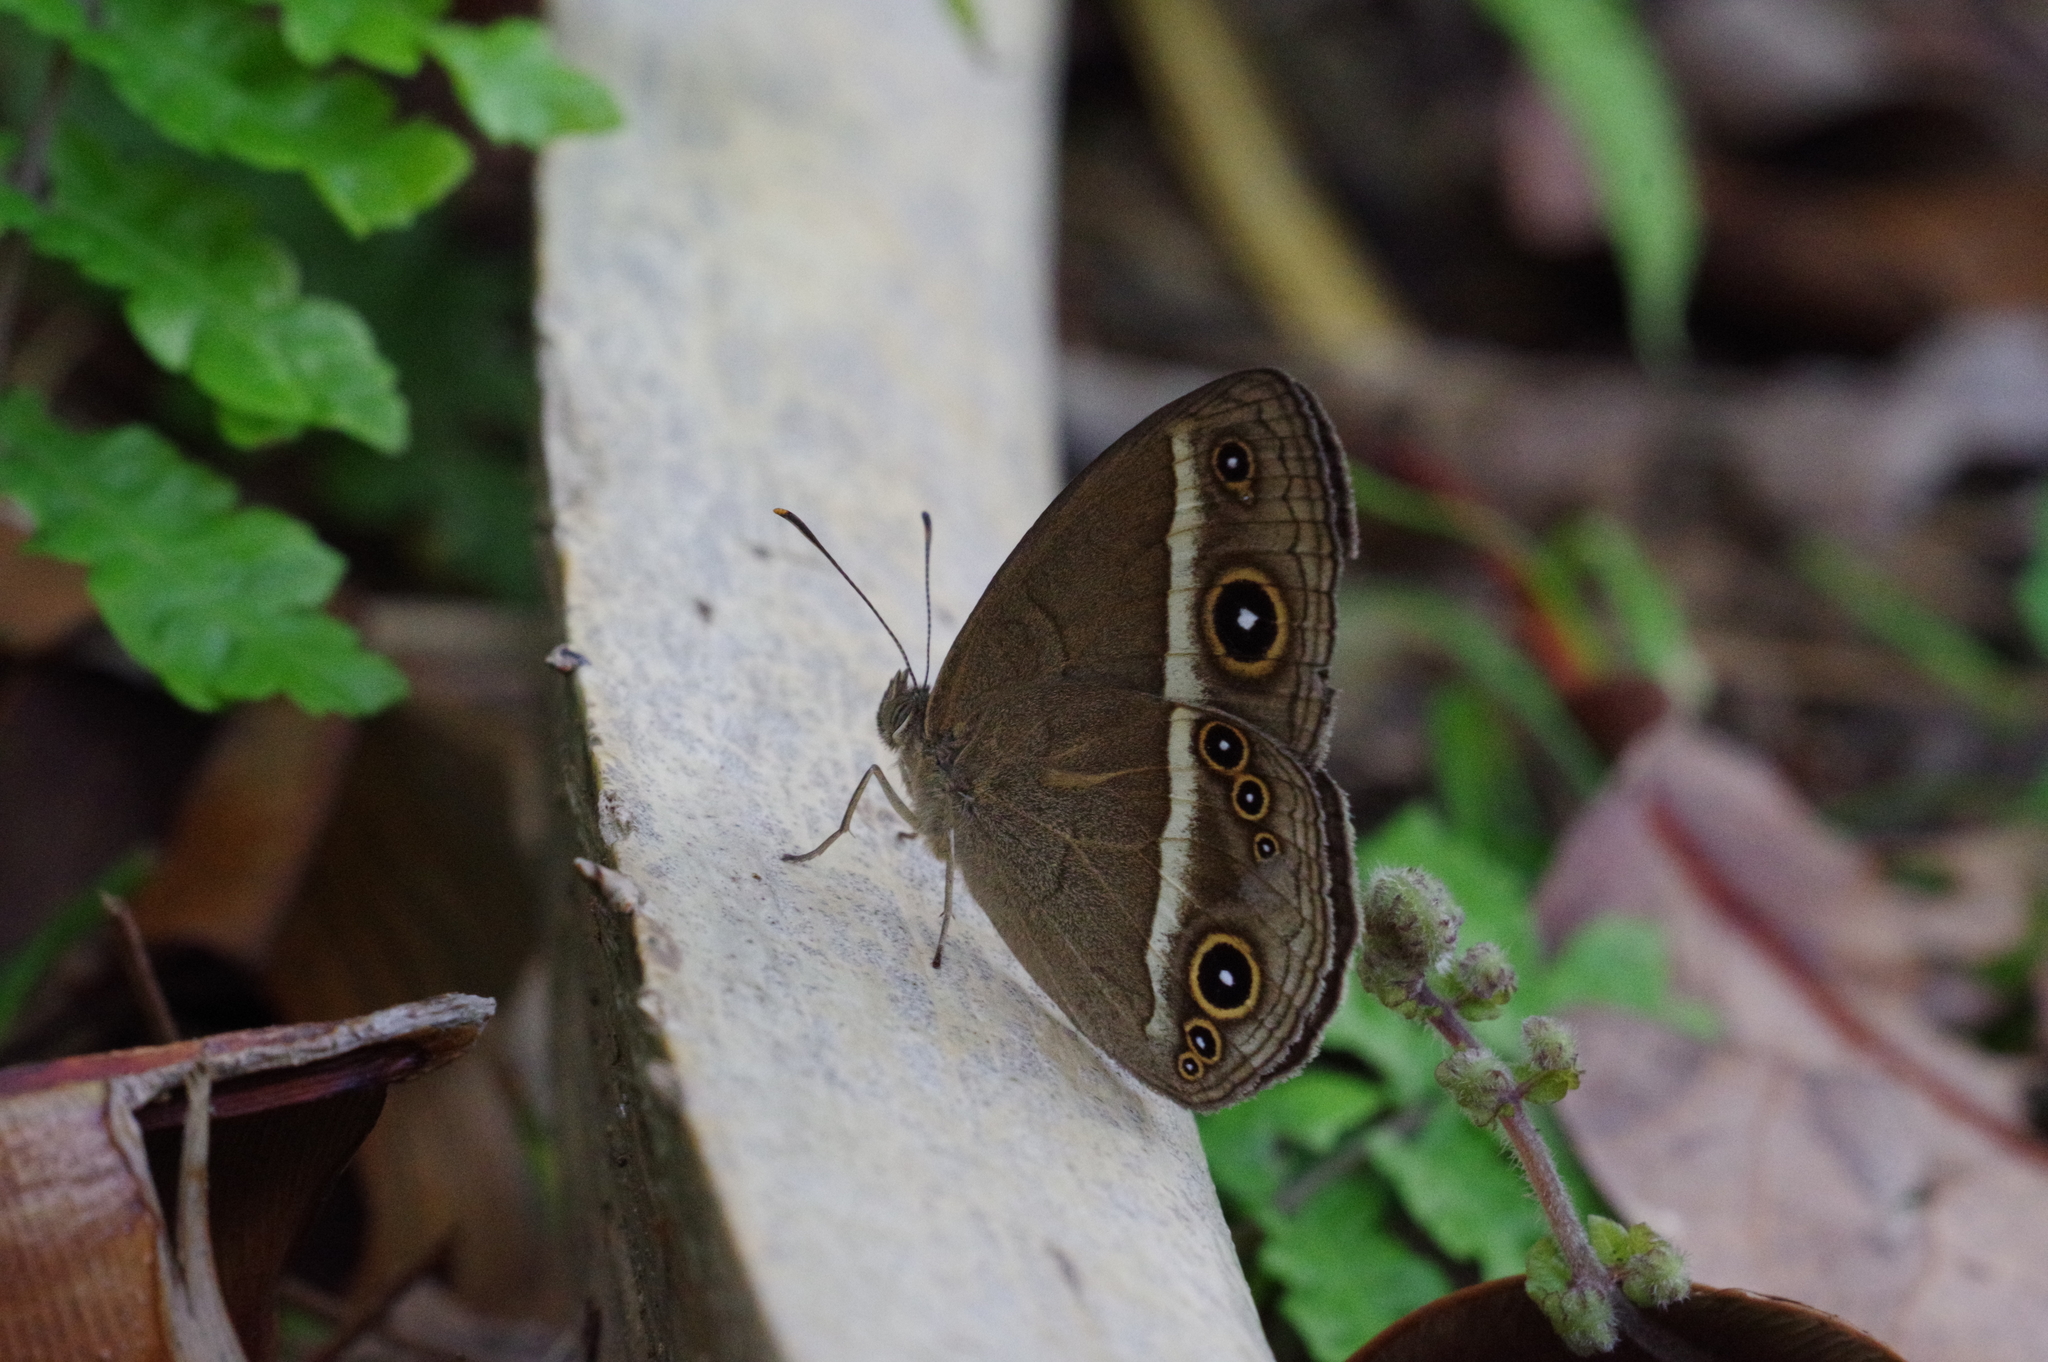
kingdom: Animalia
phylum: Arthropoda
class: Insecta
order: Lepidoptera
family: Nymphalidae
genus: Mycalesis
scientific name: Mycalesis gotama
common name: Chinese bushbrown
